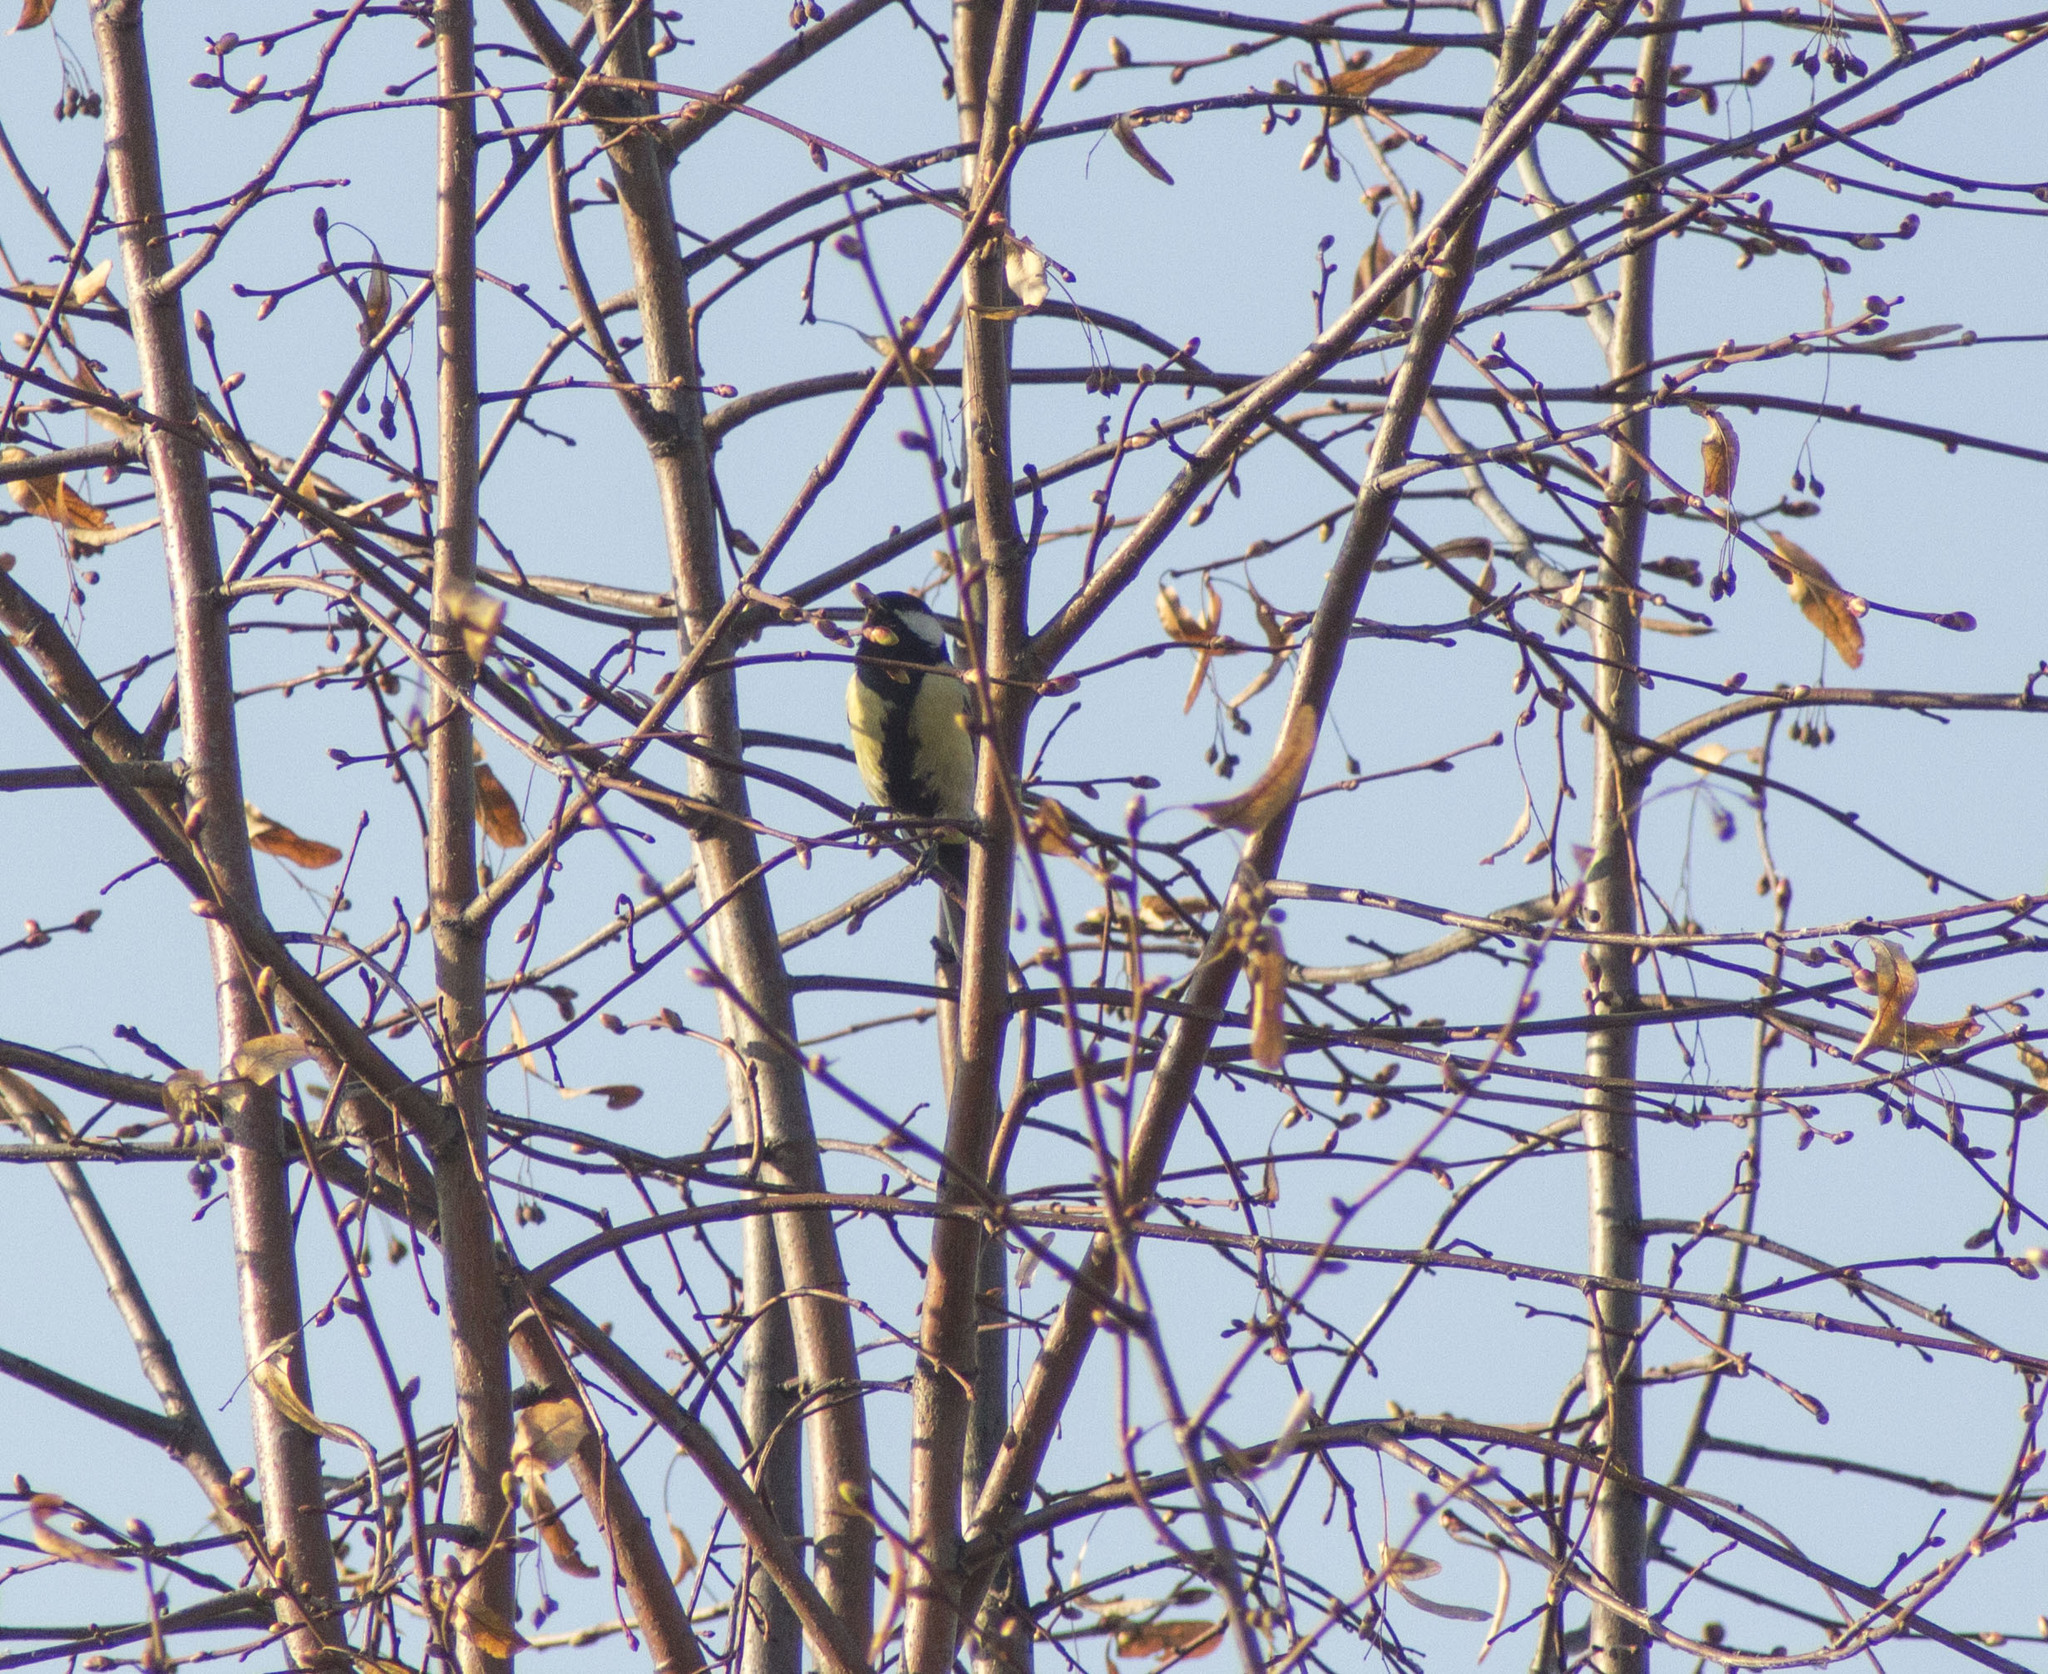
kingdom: Animalia
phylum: Chordata
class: Aves
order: Passeriformes
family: Paridae
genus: Parus
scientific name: Parus major
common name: Great tit
